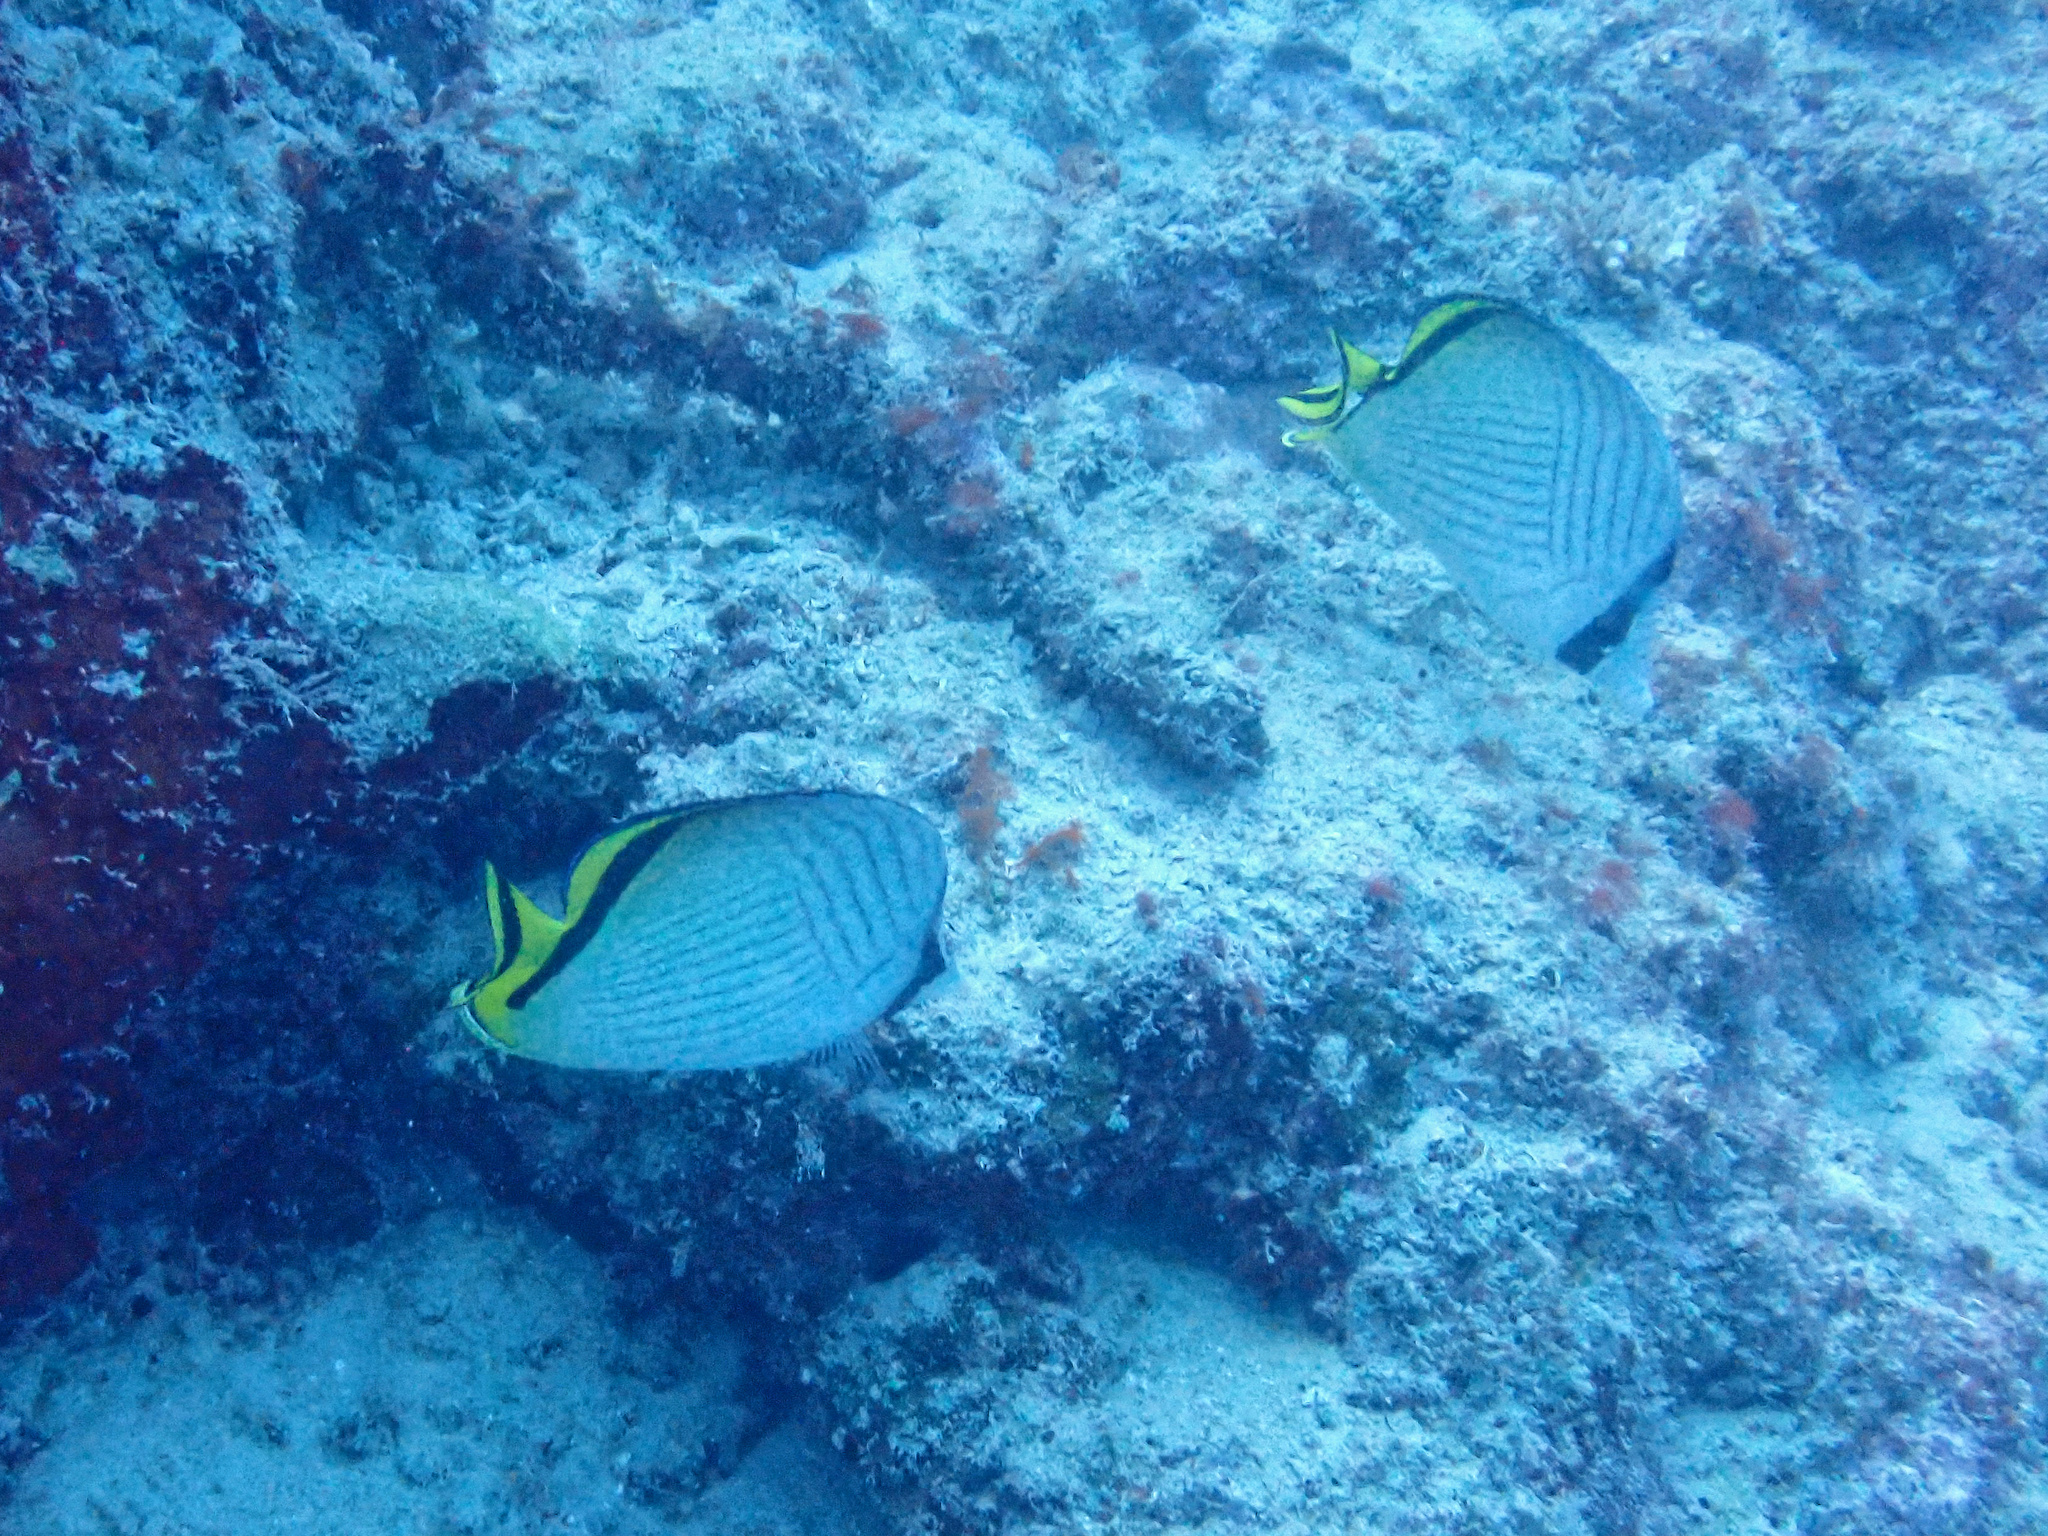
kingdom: Animalia
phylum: Chordata
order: Perciformes
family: Chaetodontidae
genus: Chaetodon
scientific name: Chaetodon vagabundus
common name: Vagabond butterflyfish
